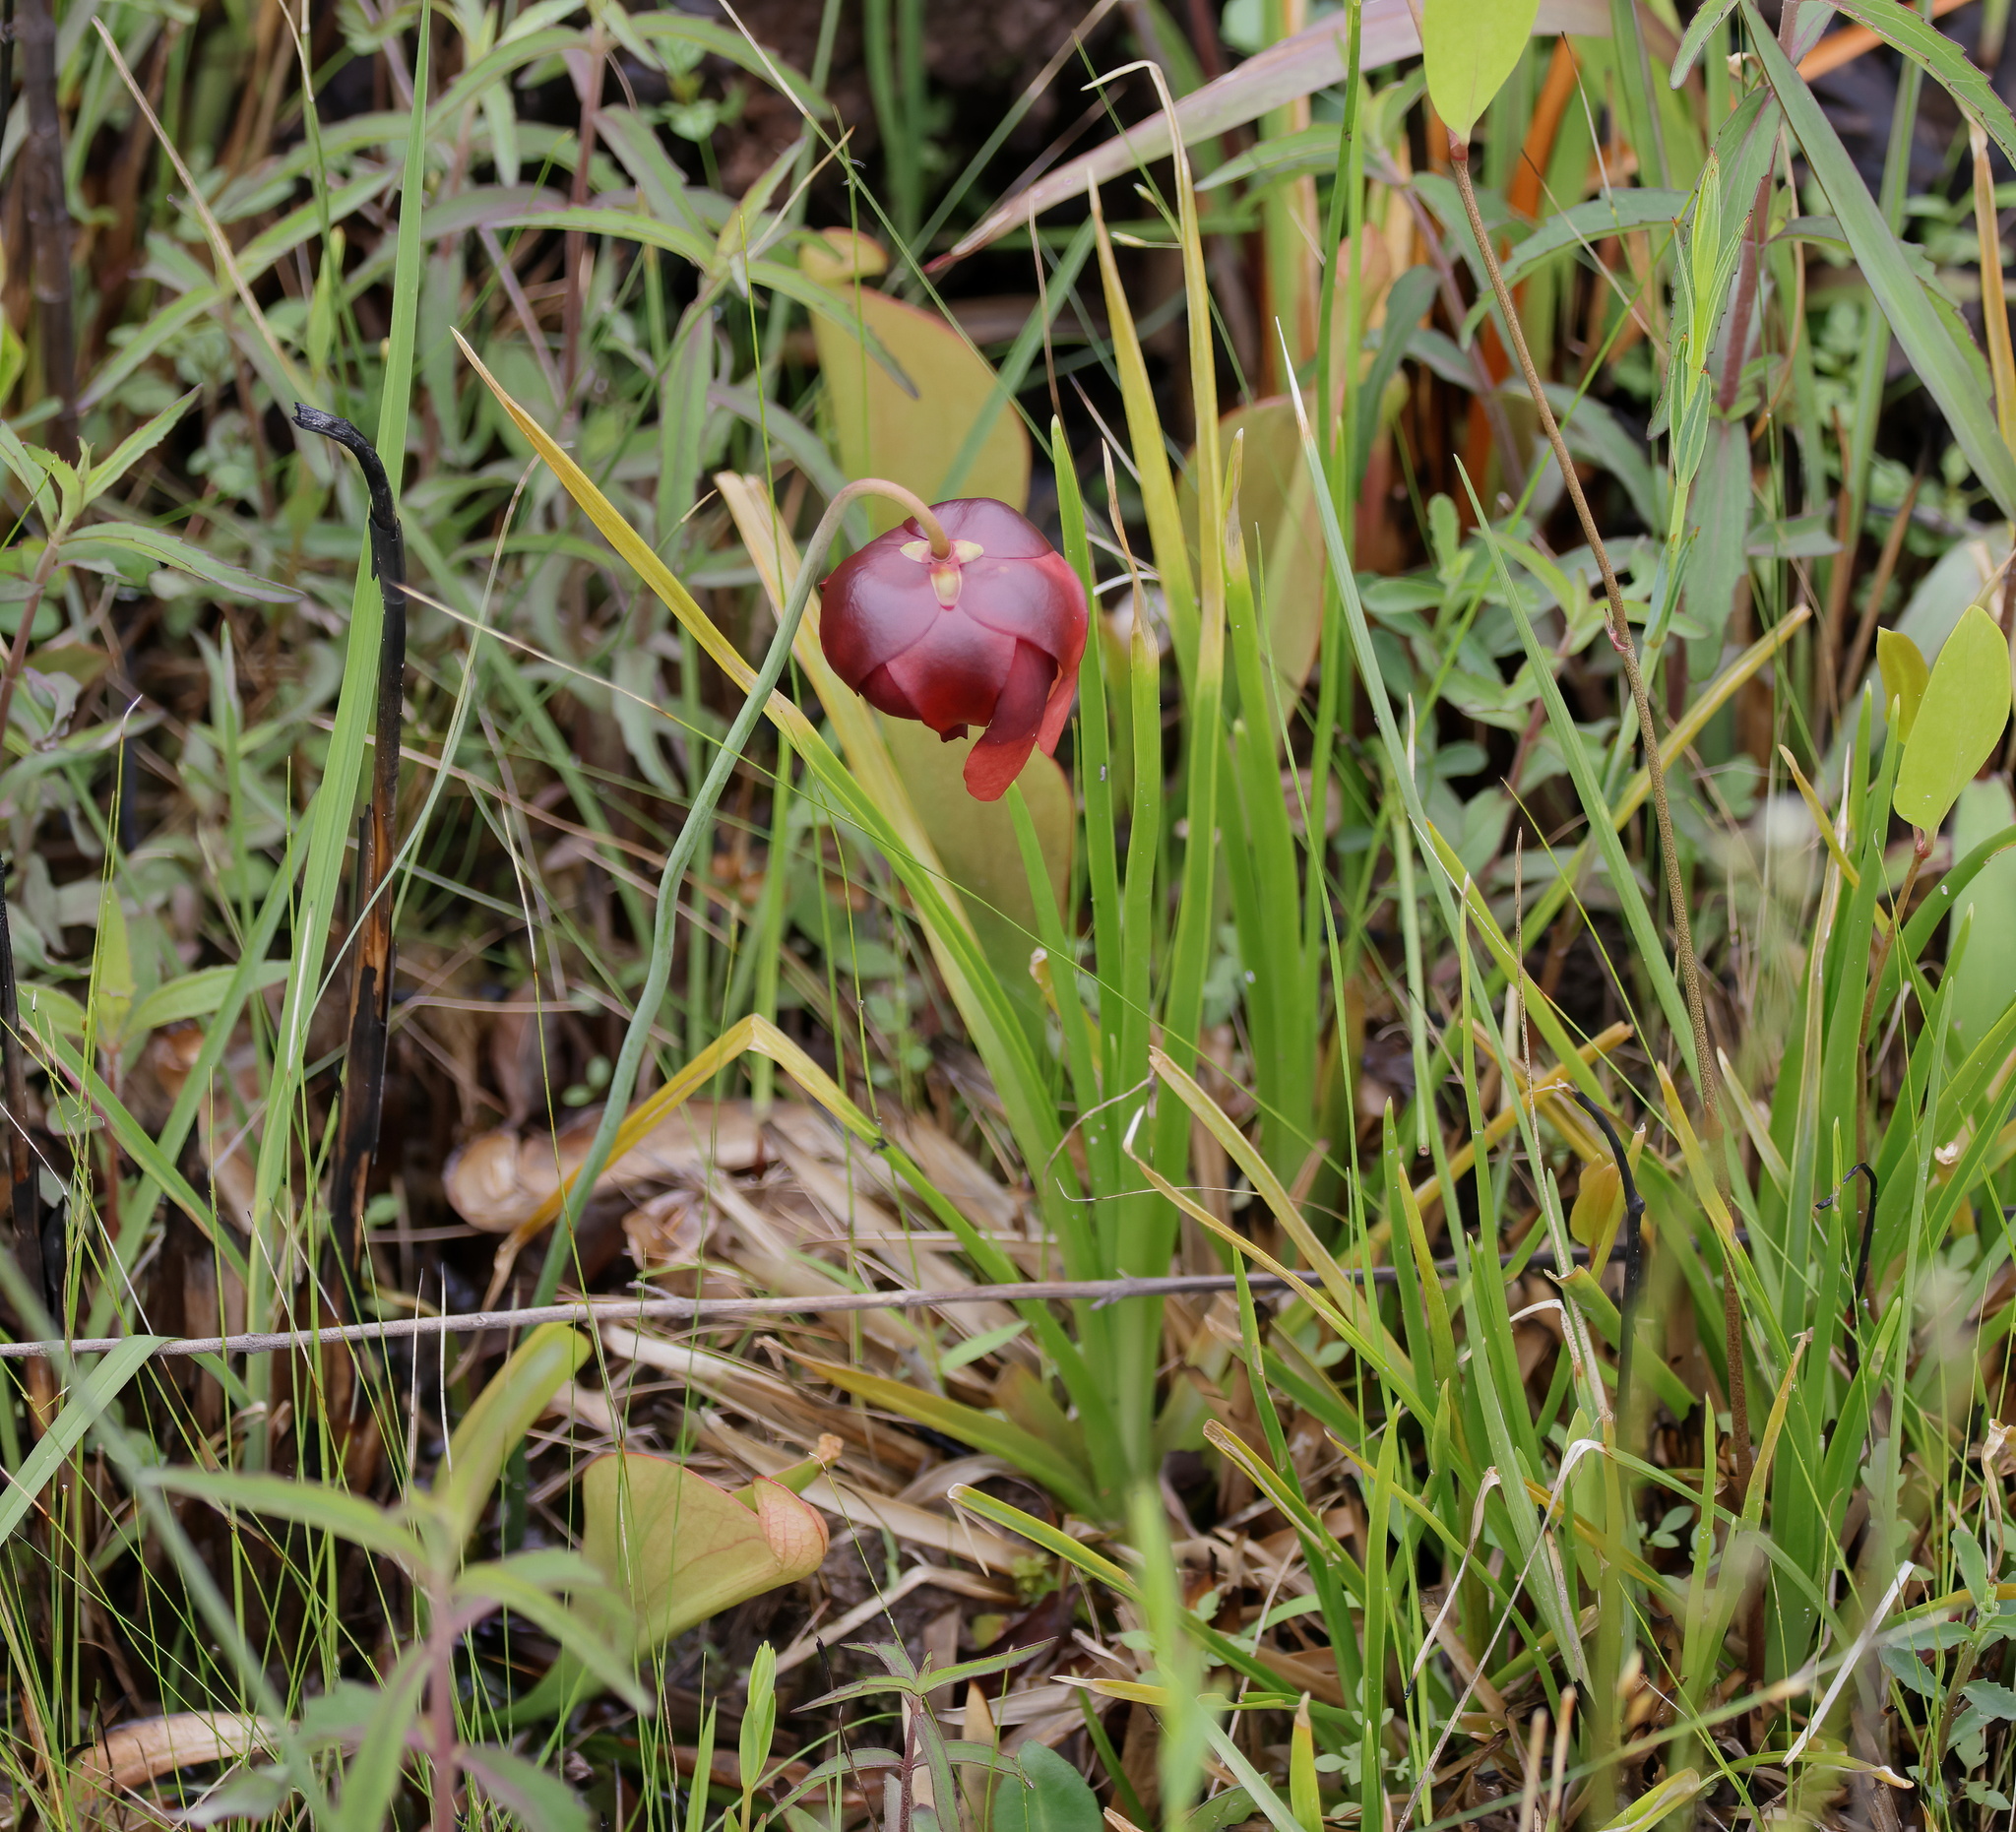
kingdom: Plantae
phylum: Tracheophyta
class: Magnoliopsida
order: Ericales
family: Sarraceniaceae
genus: Sarracenia
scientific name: Sarracenia psittacina
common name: Parrot pitcherplant
